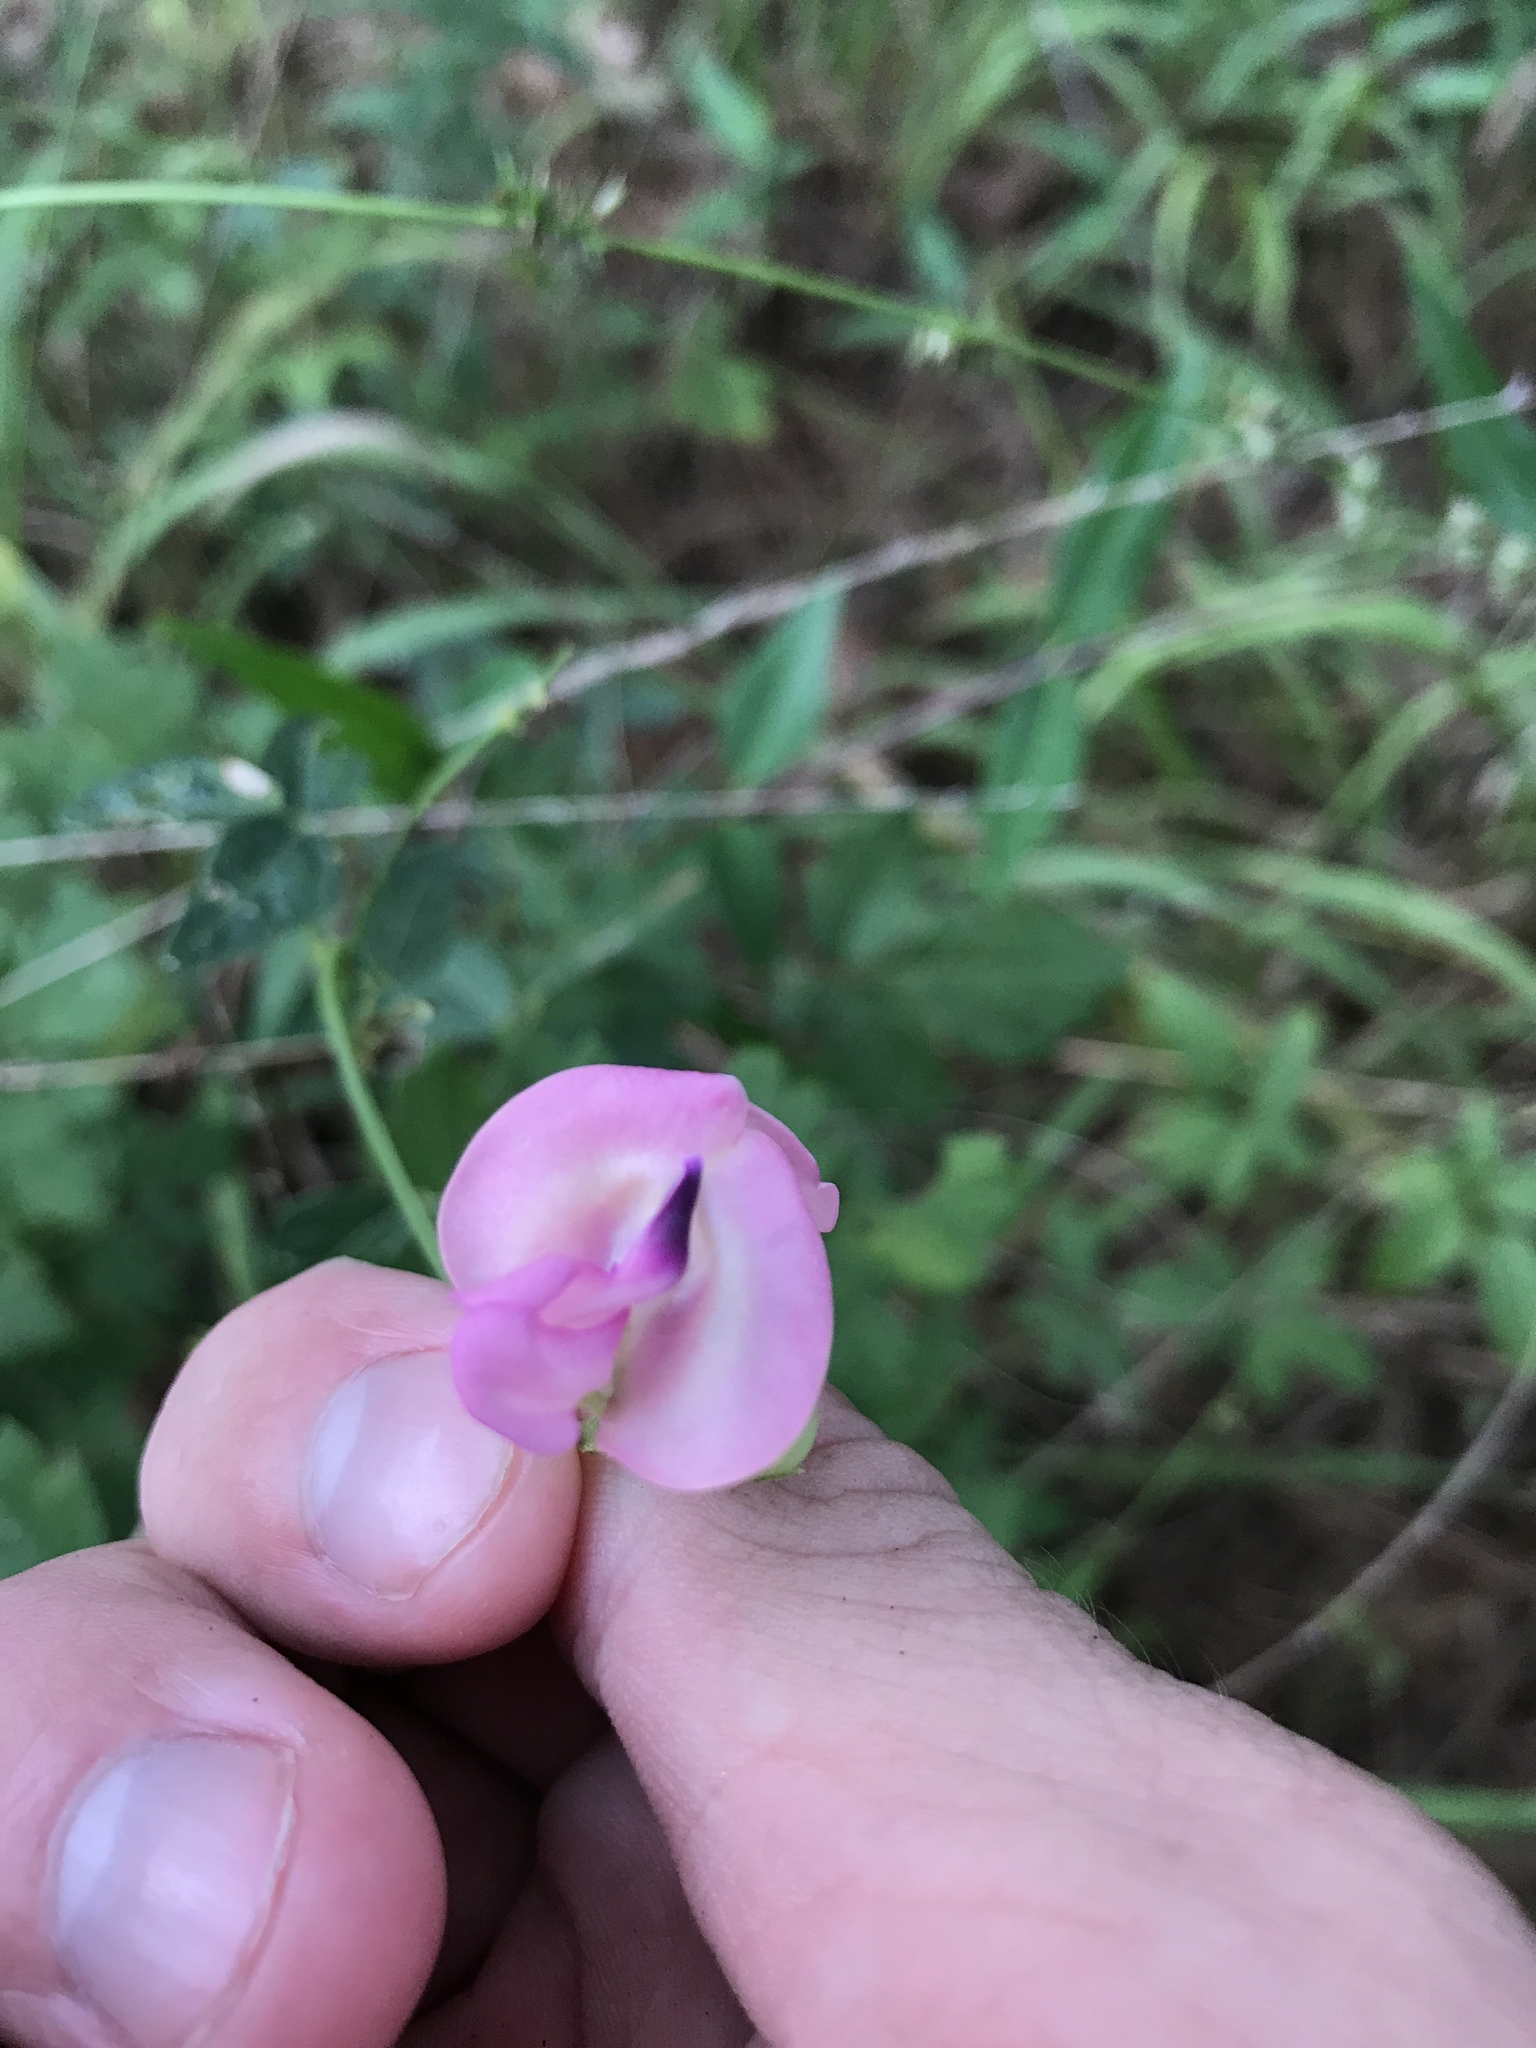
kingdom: Plantae
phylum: Tracheophyta
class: Magnoliopsida
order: Fabales
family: Fabaceae
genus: Strophostyles
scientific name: Strophostyles umbellata
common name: Perennial wild bean
